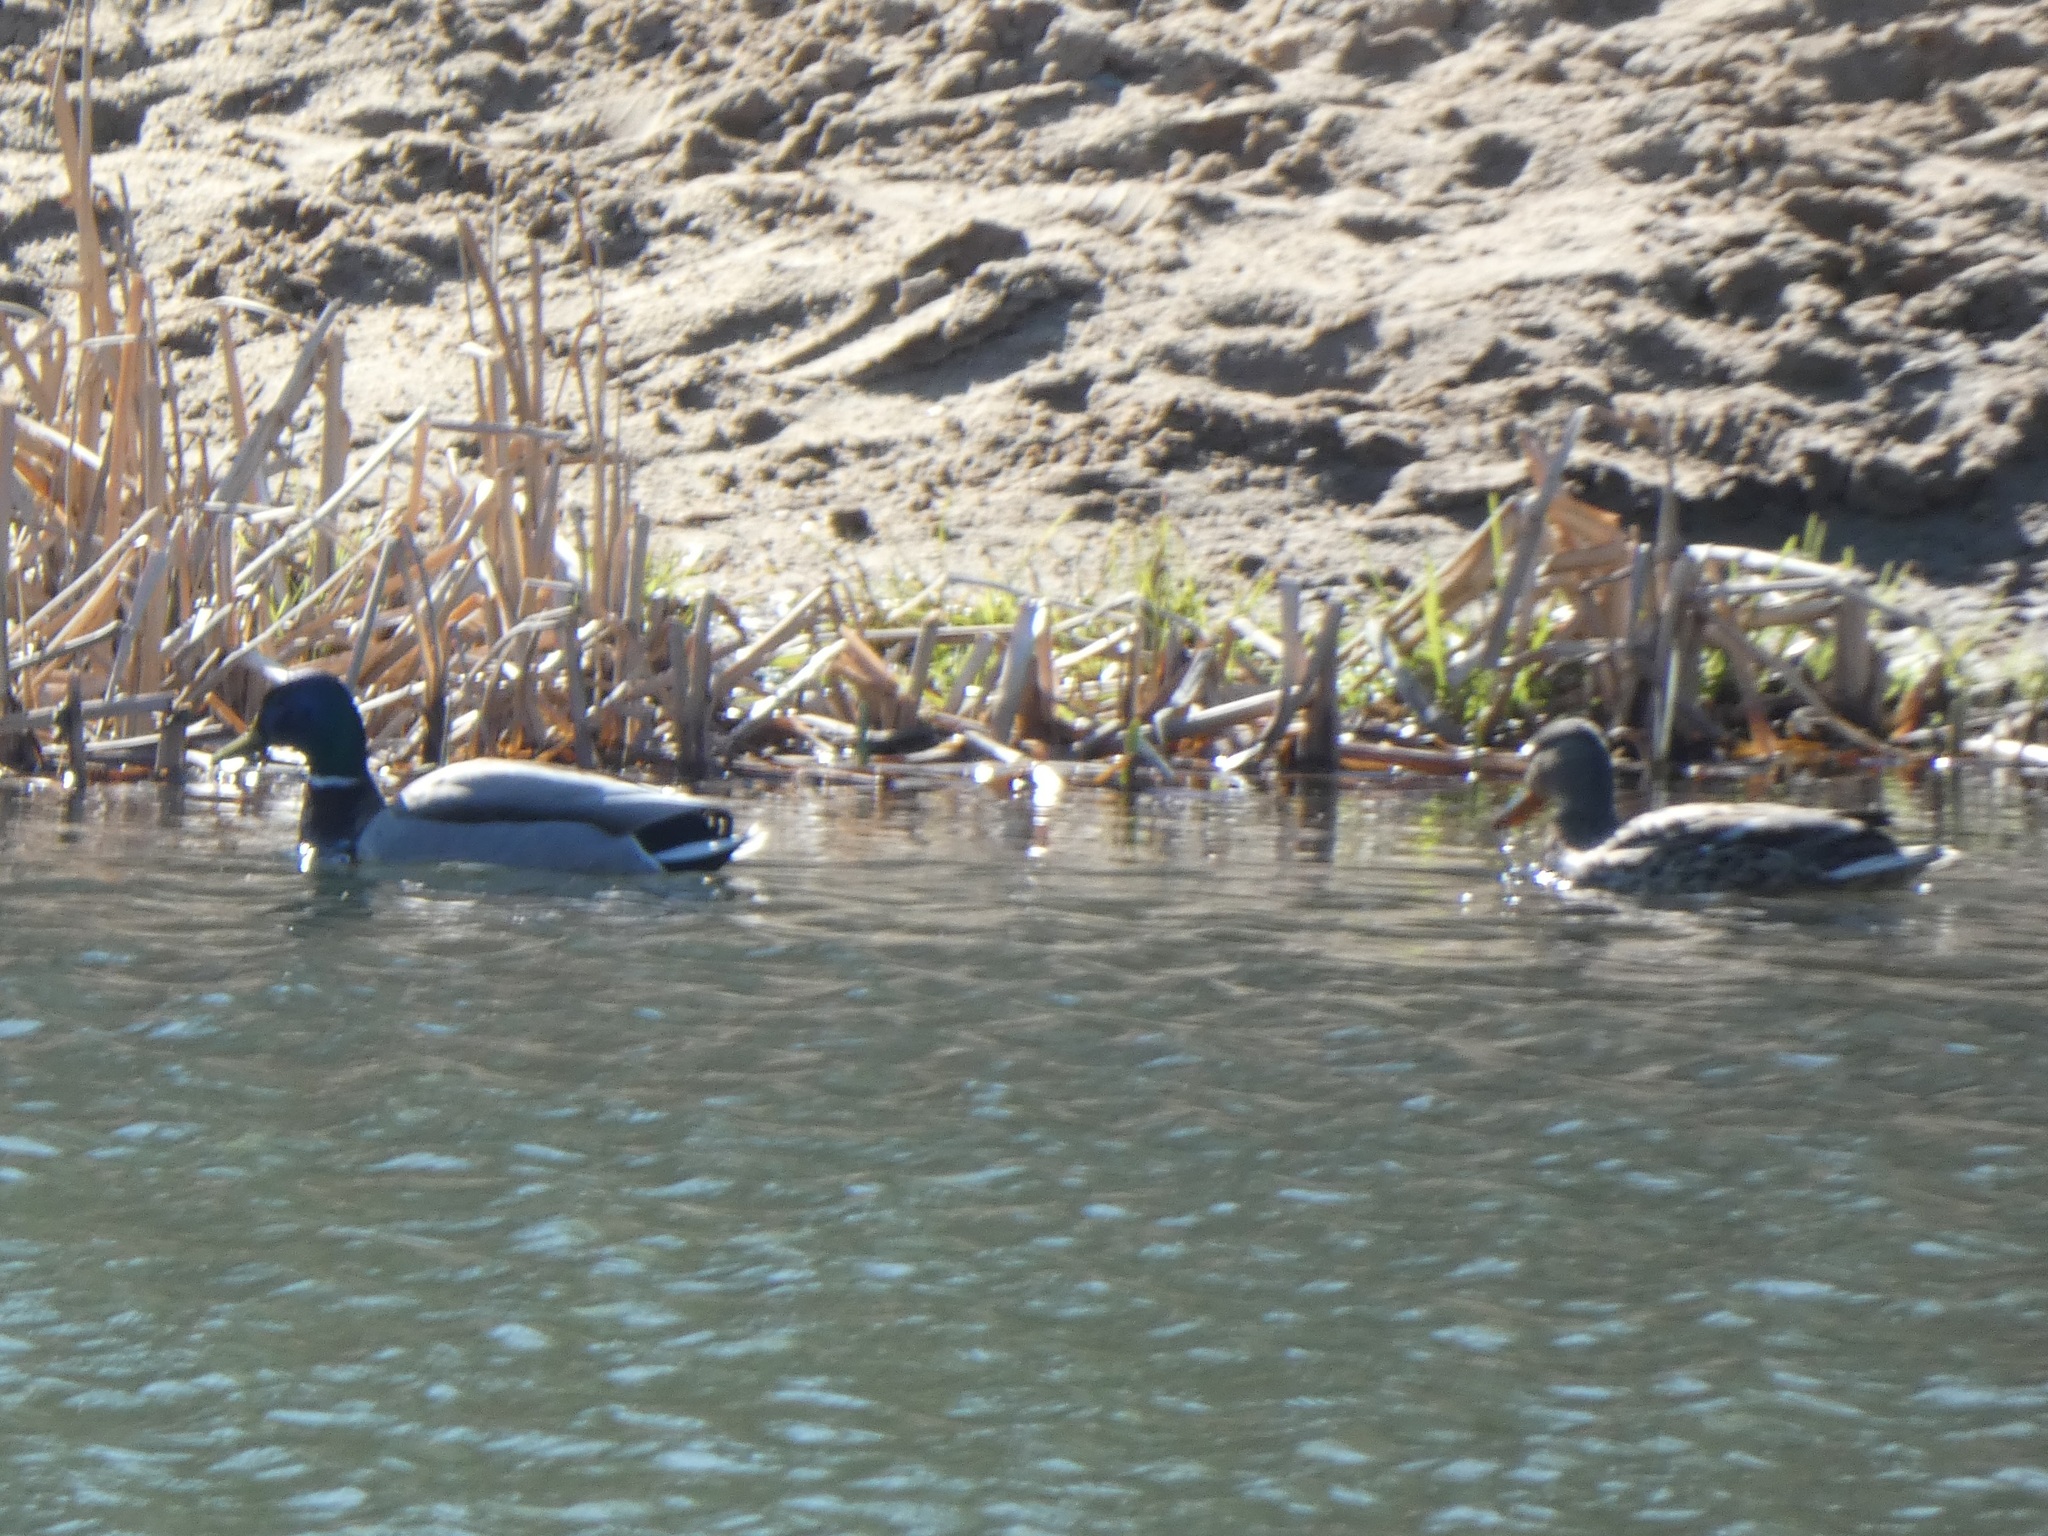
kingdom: Animalia
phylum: Chordata
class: Aves
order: Anseriformes
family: Anatidae
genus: Anas
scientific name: Anas platyrhynchos
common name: Mallard
